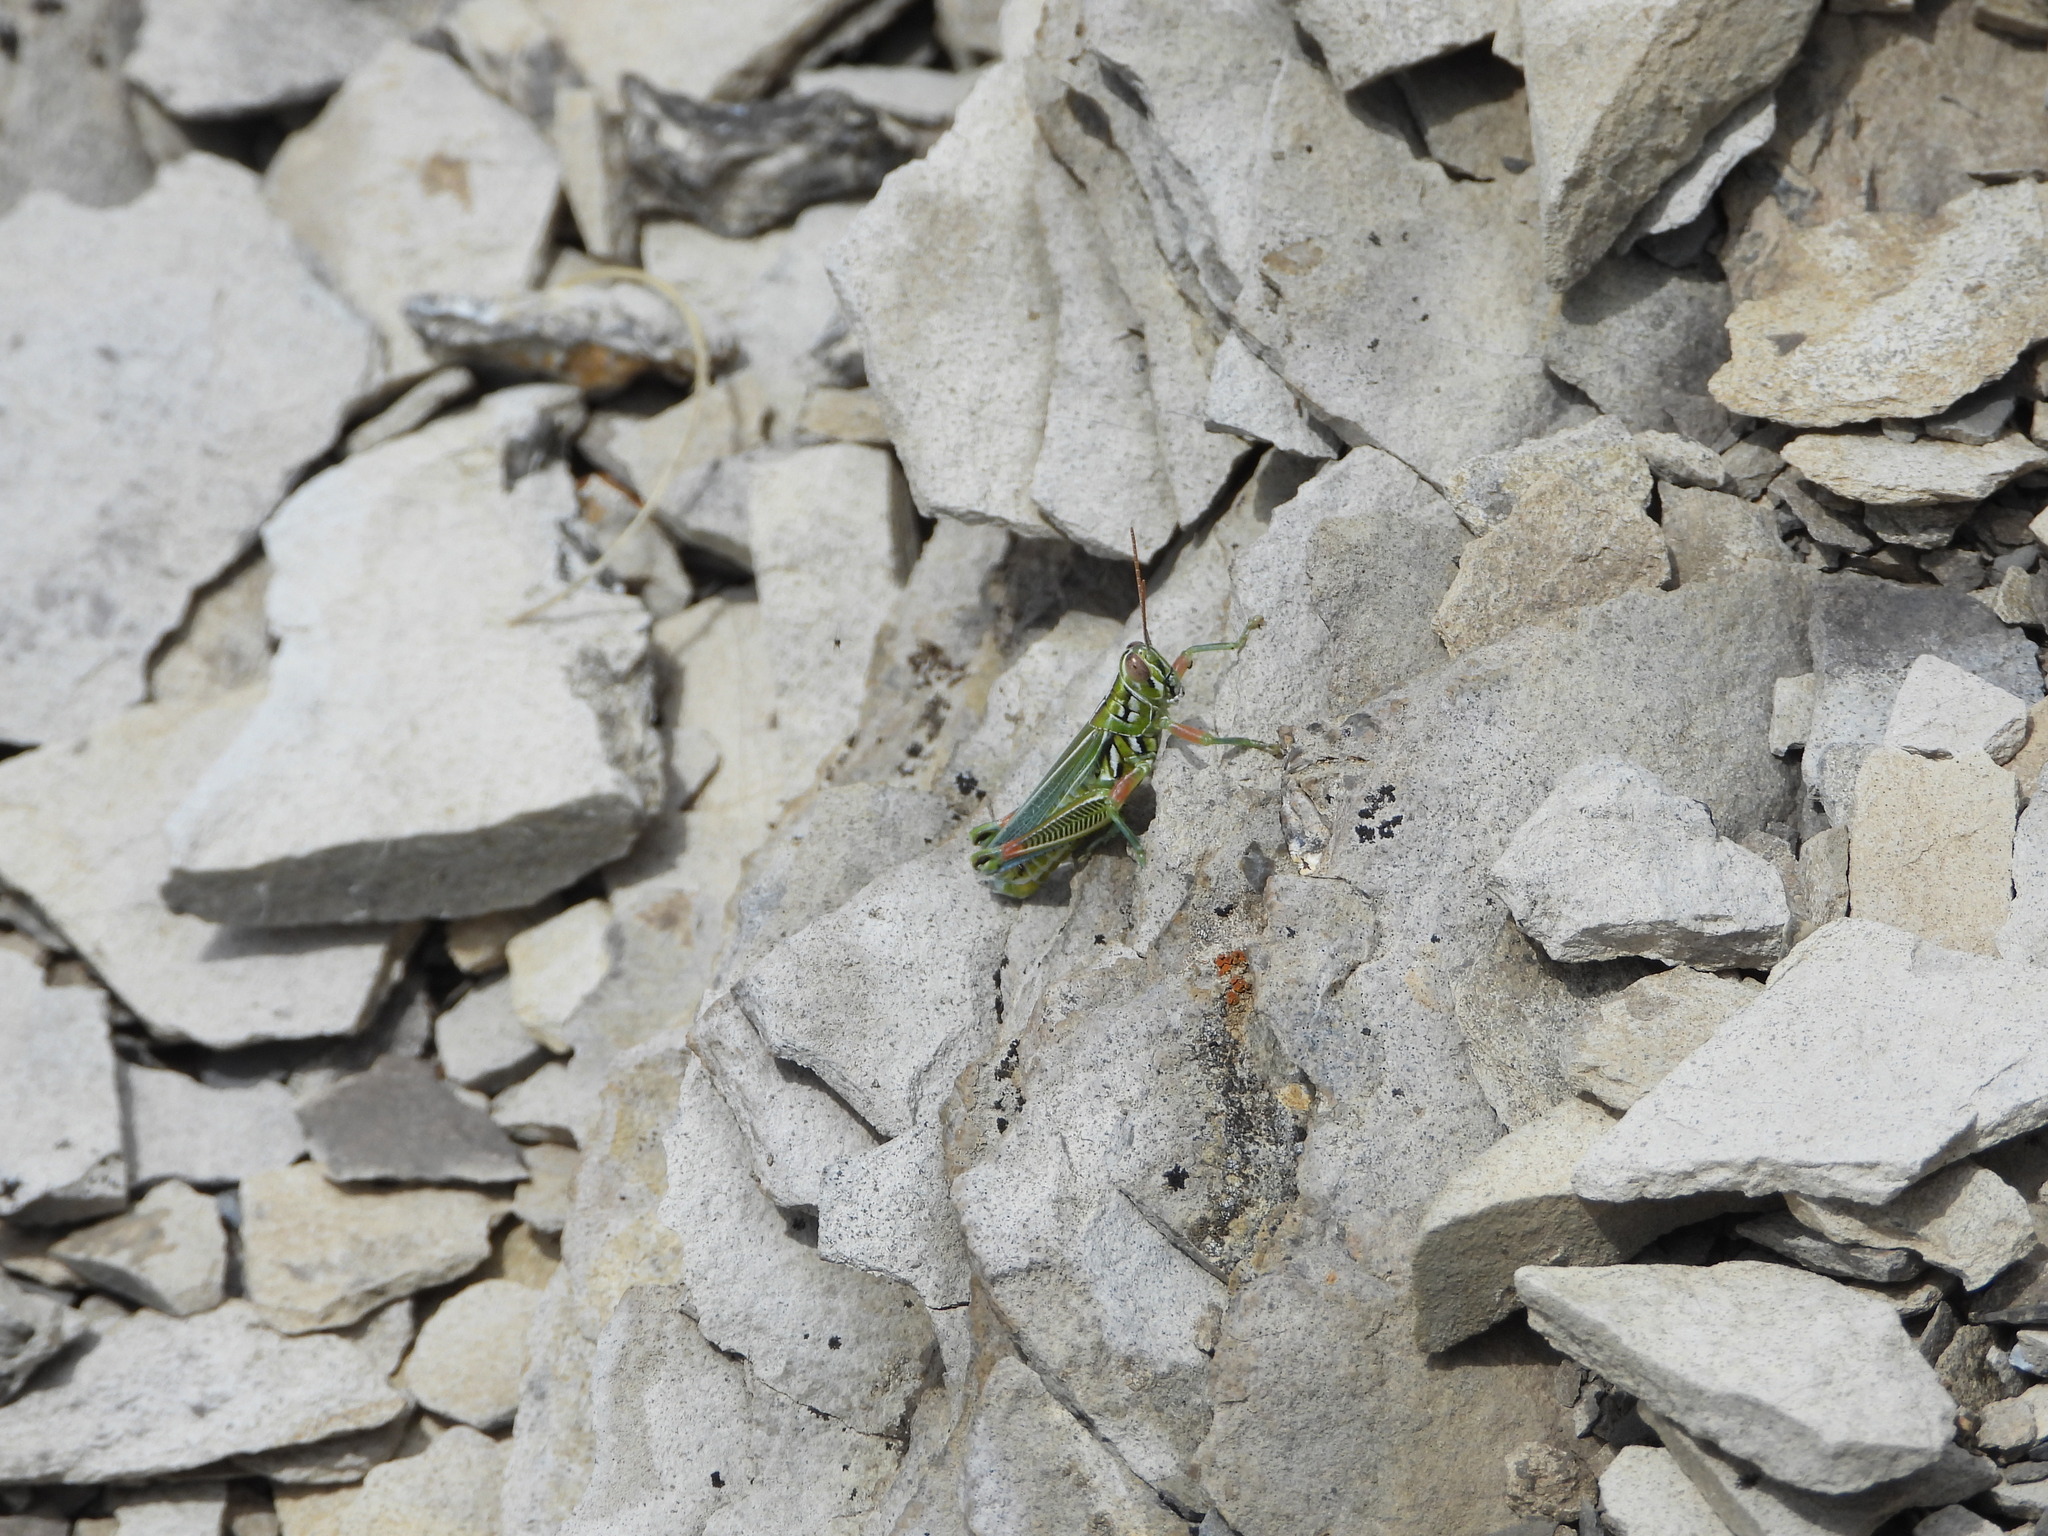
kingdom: Animalia
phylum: Arthropoda
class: Insecta
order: Orthoptera
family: Acrididae
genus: Hesperotettix
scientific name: Hesperotettix viridis
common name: Meadow purple-striped grasshopper
